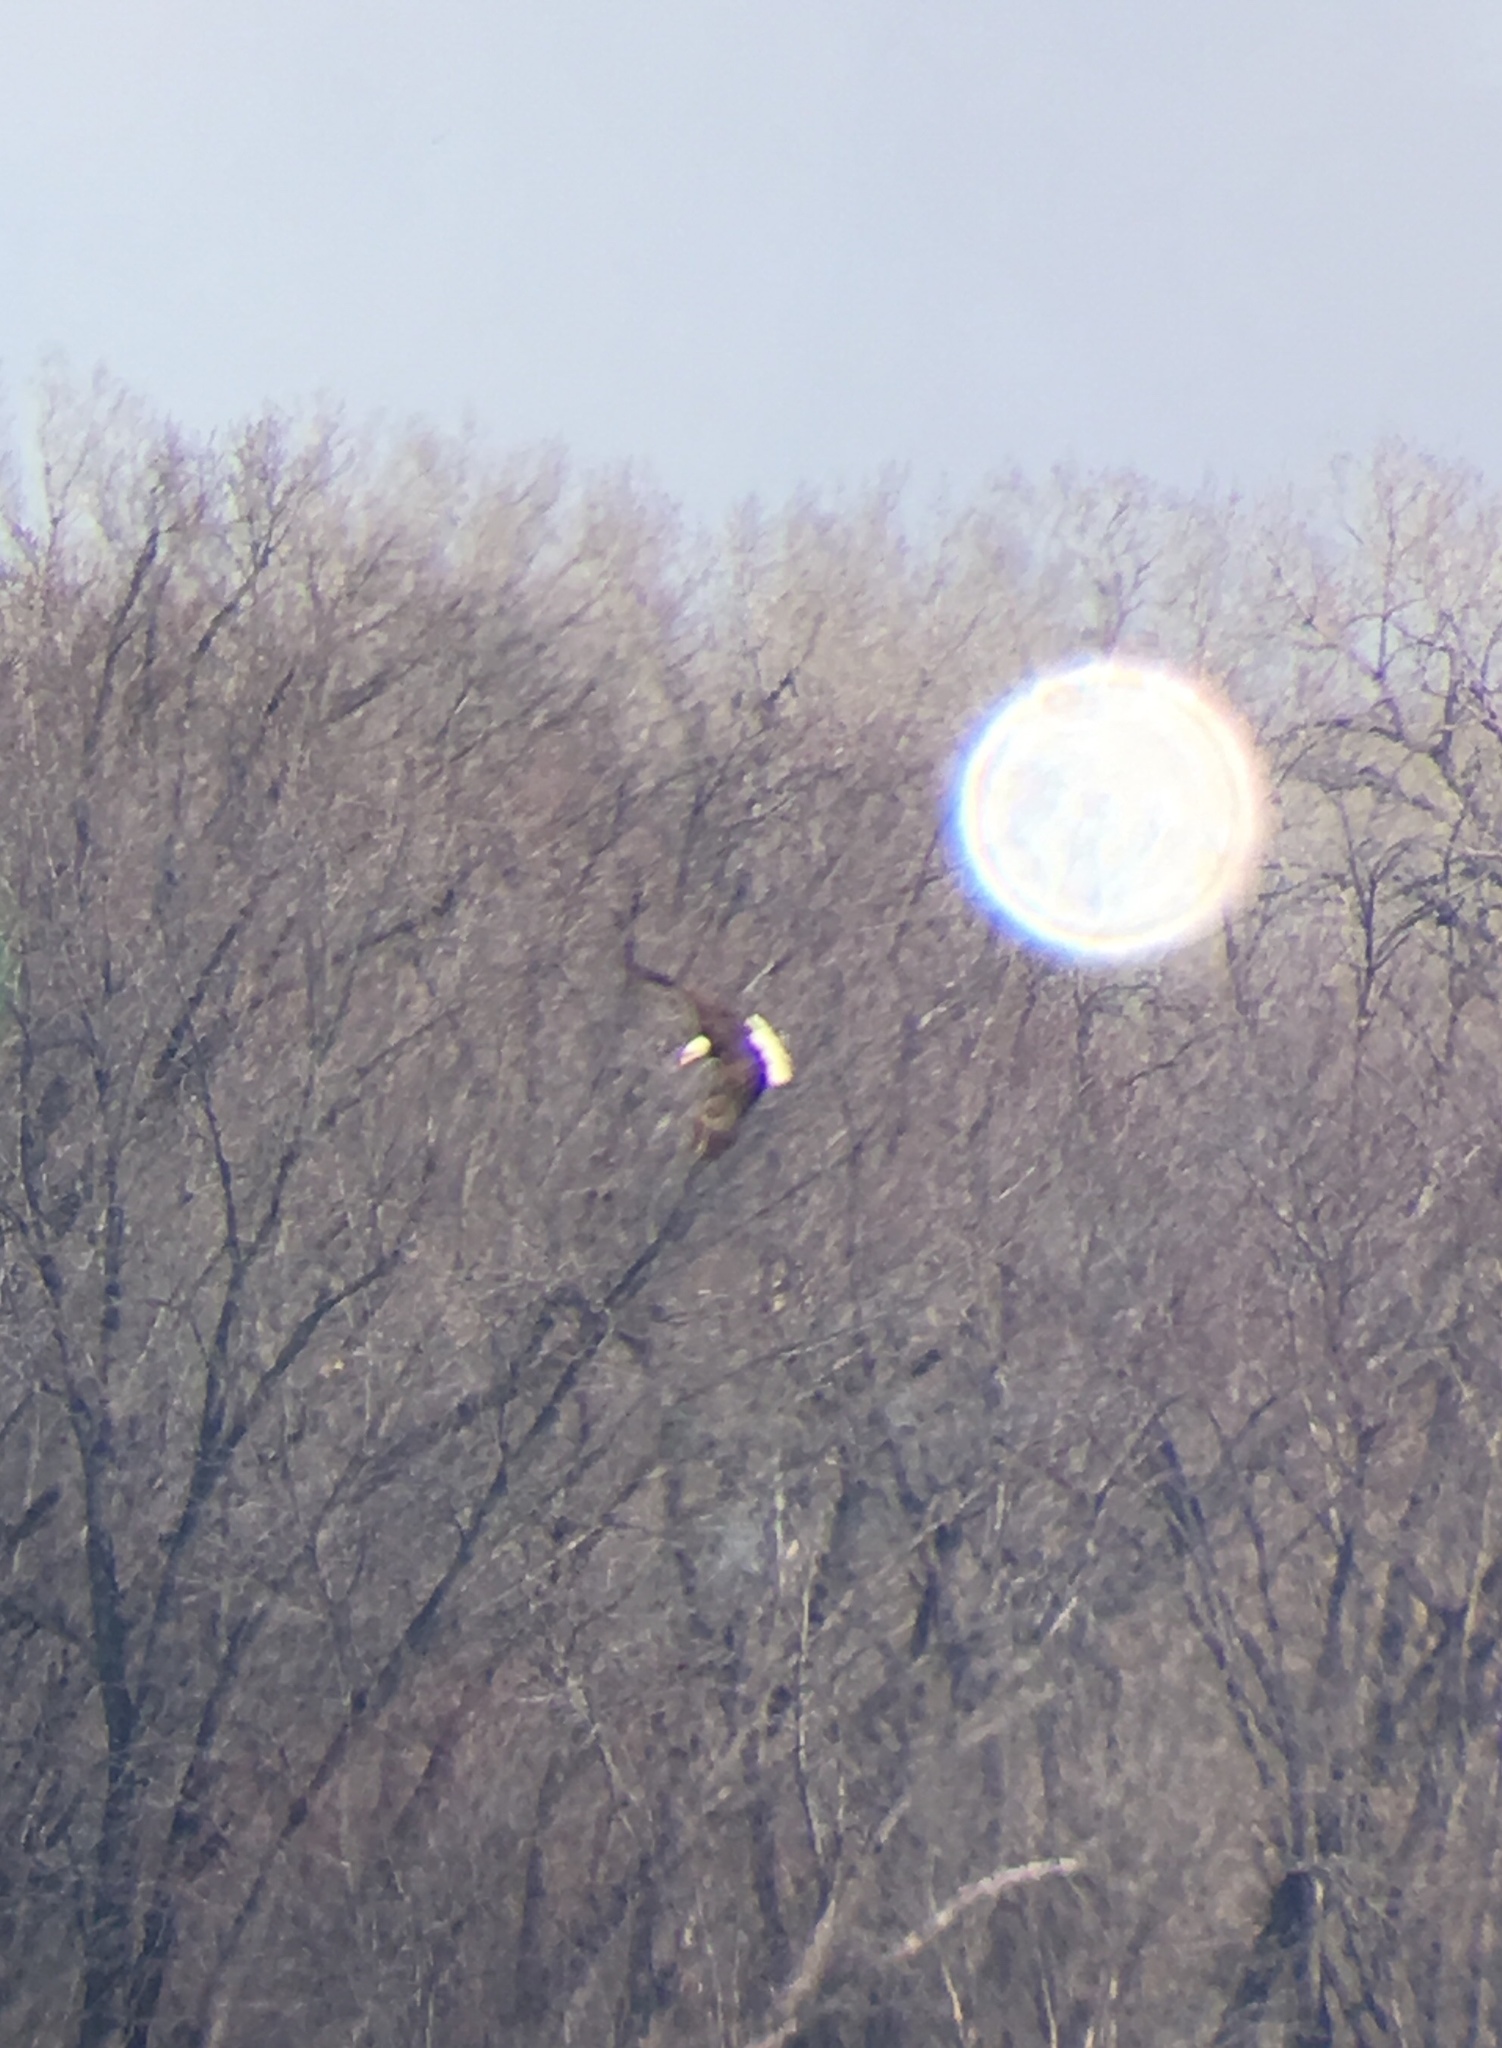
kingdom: Animalia
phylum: Chordata
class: Aves
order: Accipitriformes
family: Accipitridae
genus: Haliaeetus
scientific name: Haliaeetus leucocephalus
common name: Bald eagle
